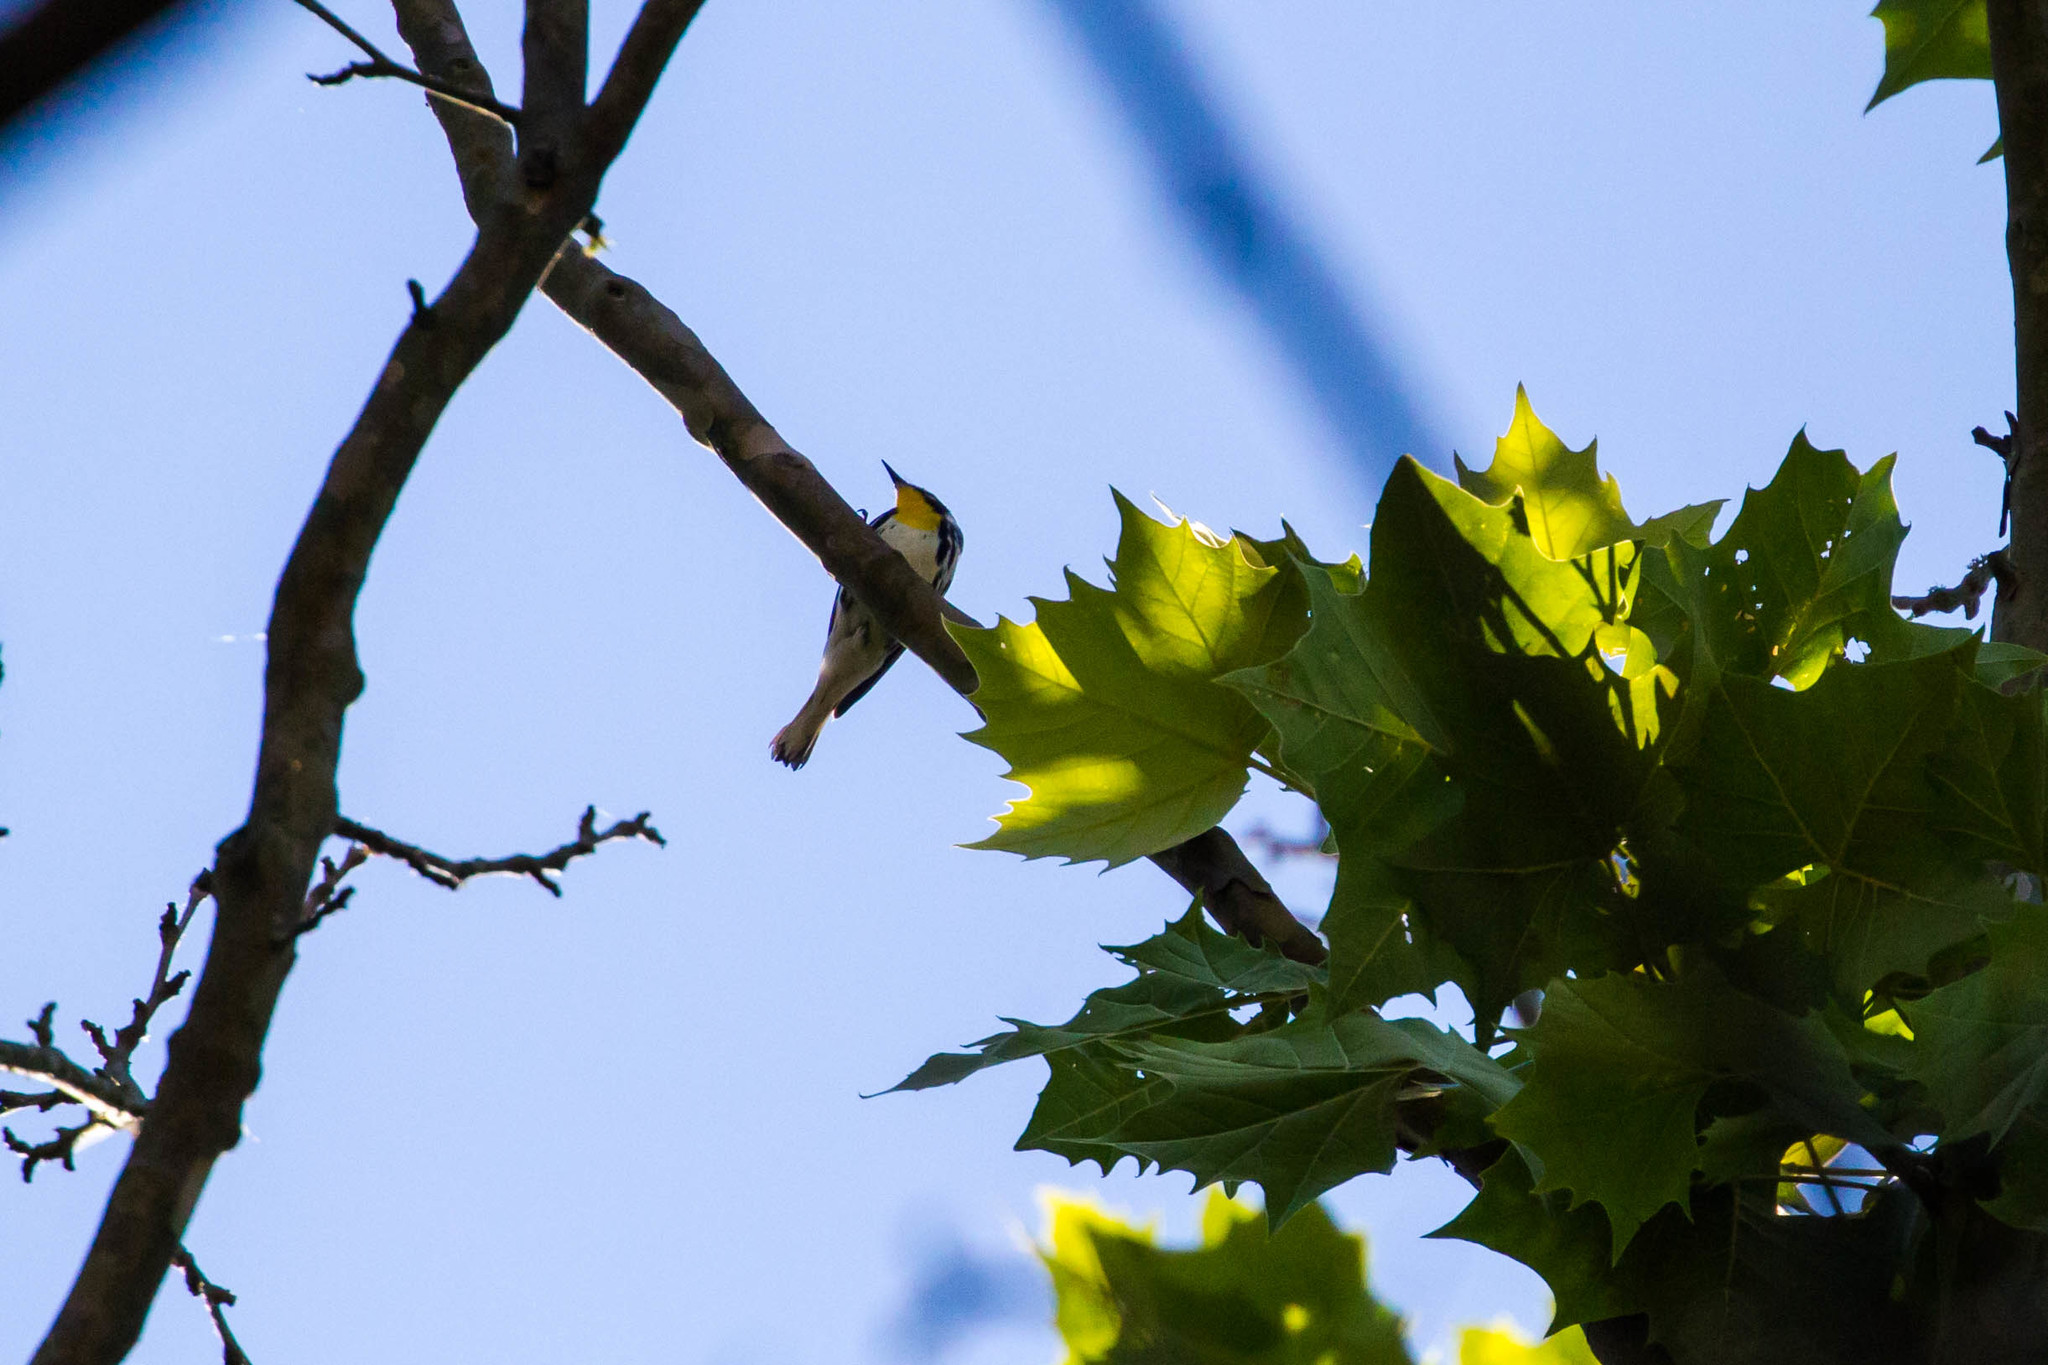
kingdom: Animalia
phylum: Chordata
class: Aves
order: Passeriformes
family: Parulidae
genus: Setophaga
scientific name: Setophaga dominica
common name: Yellow-throated warbler
